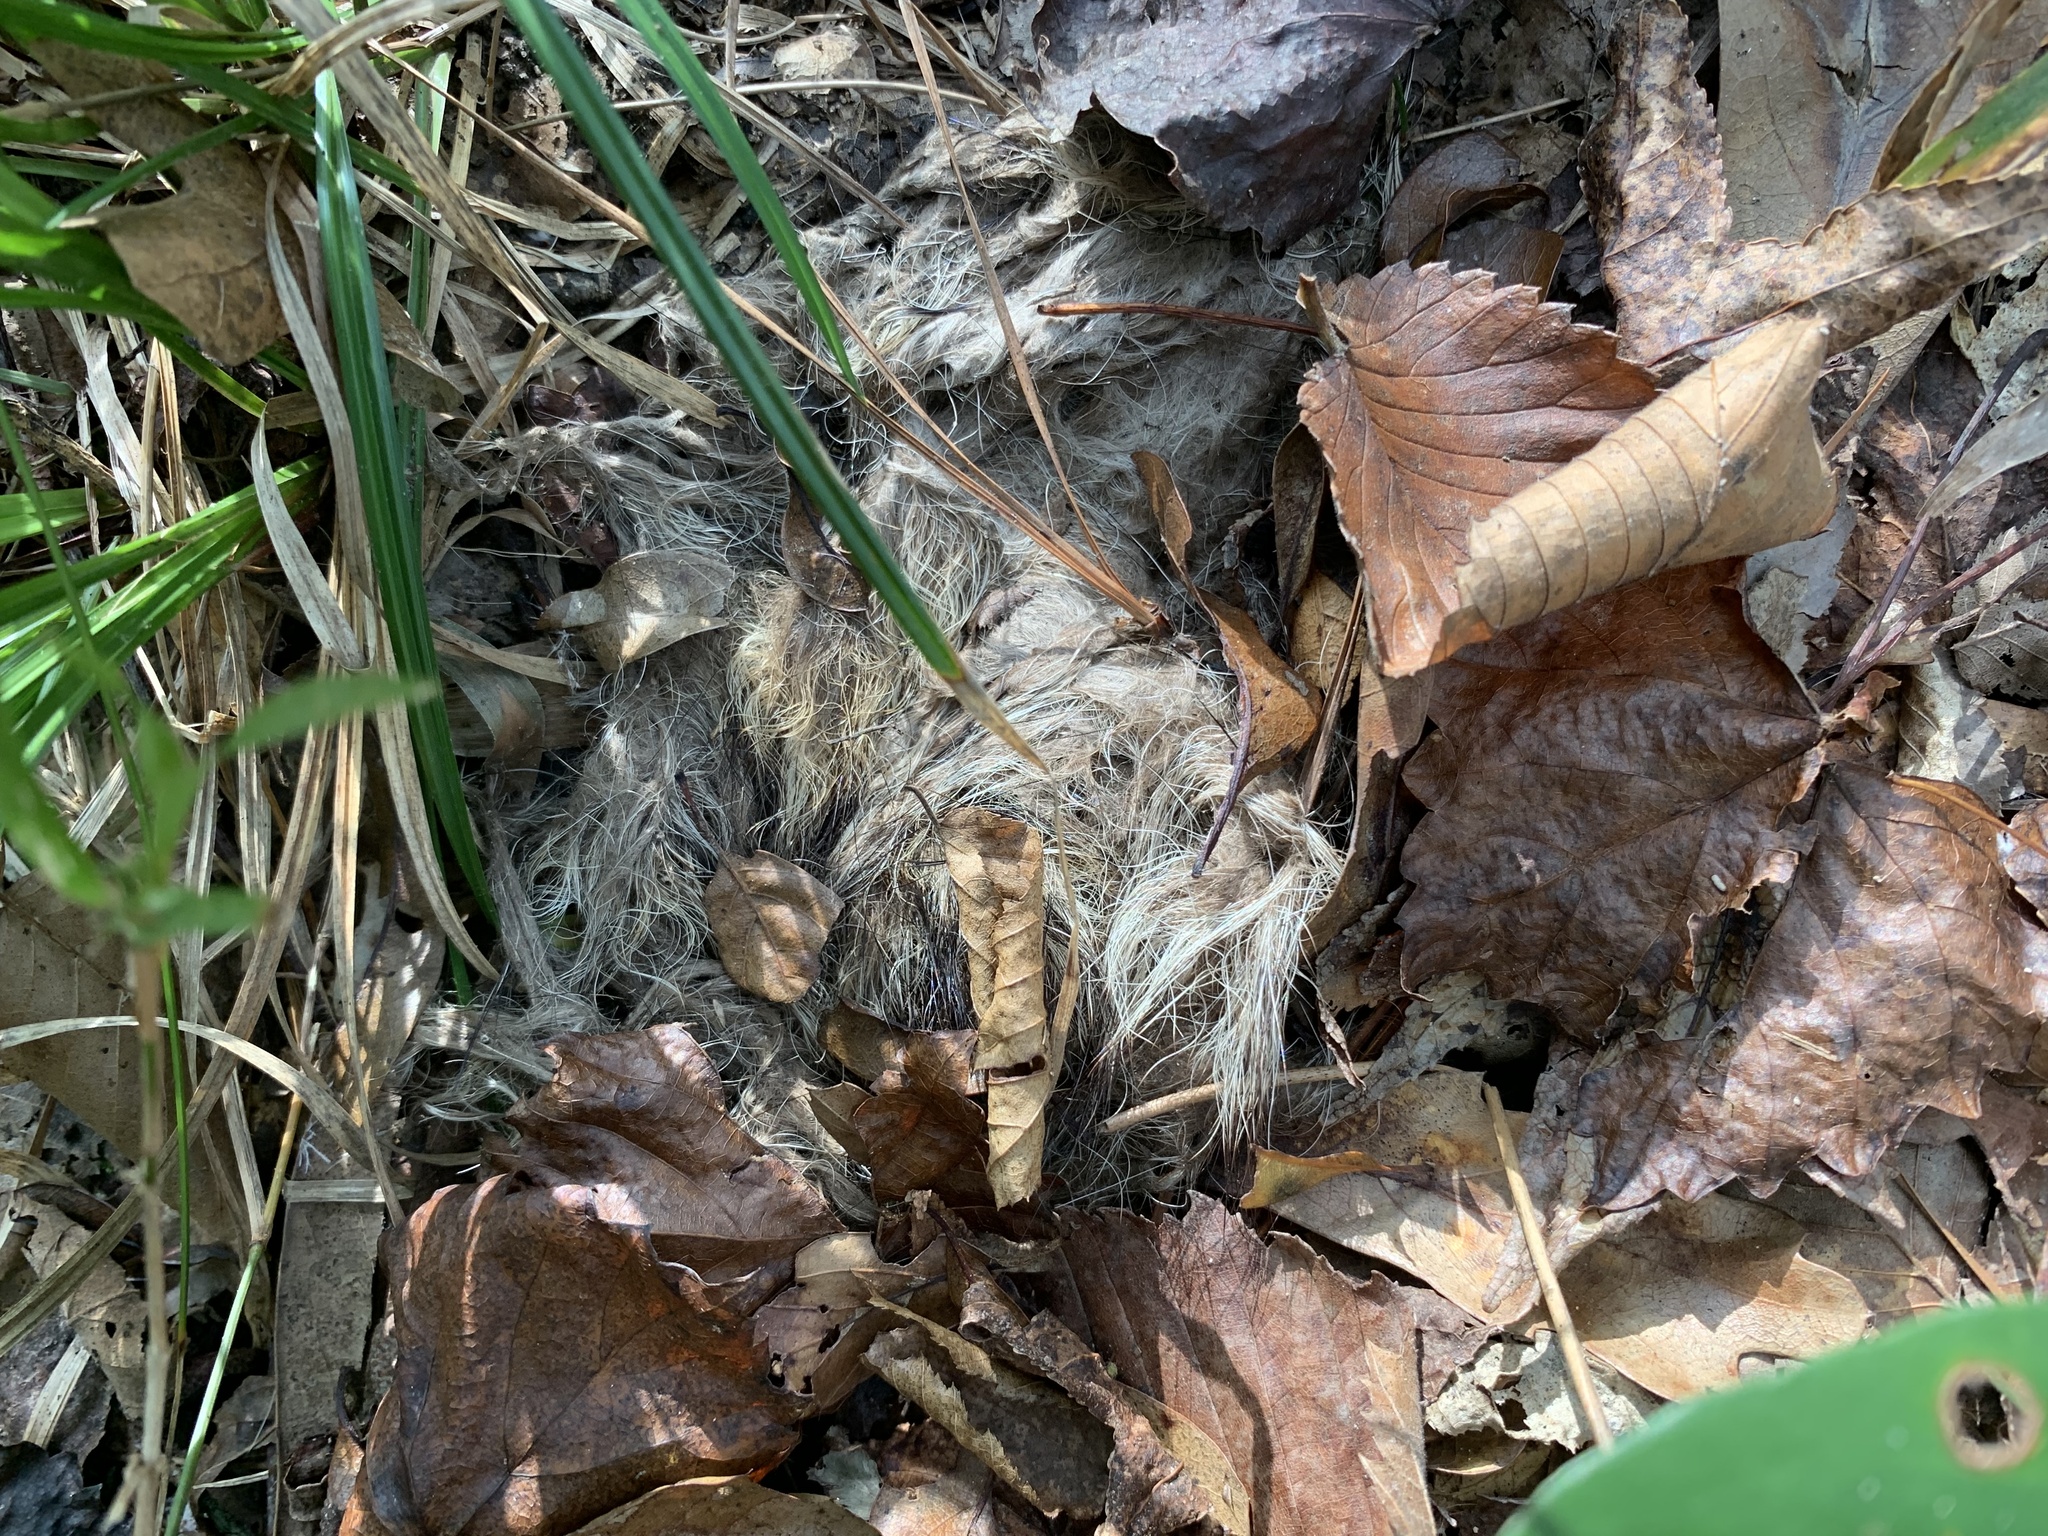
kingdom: Animalia
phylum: Chordata
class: Mammalia
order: Carnivora
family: Procyonidae
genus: Procyon
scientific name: Procyon lotor
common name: Raccoon
